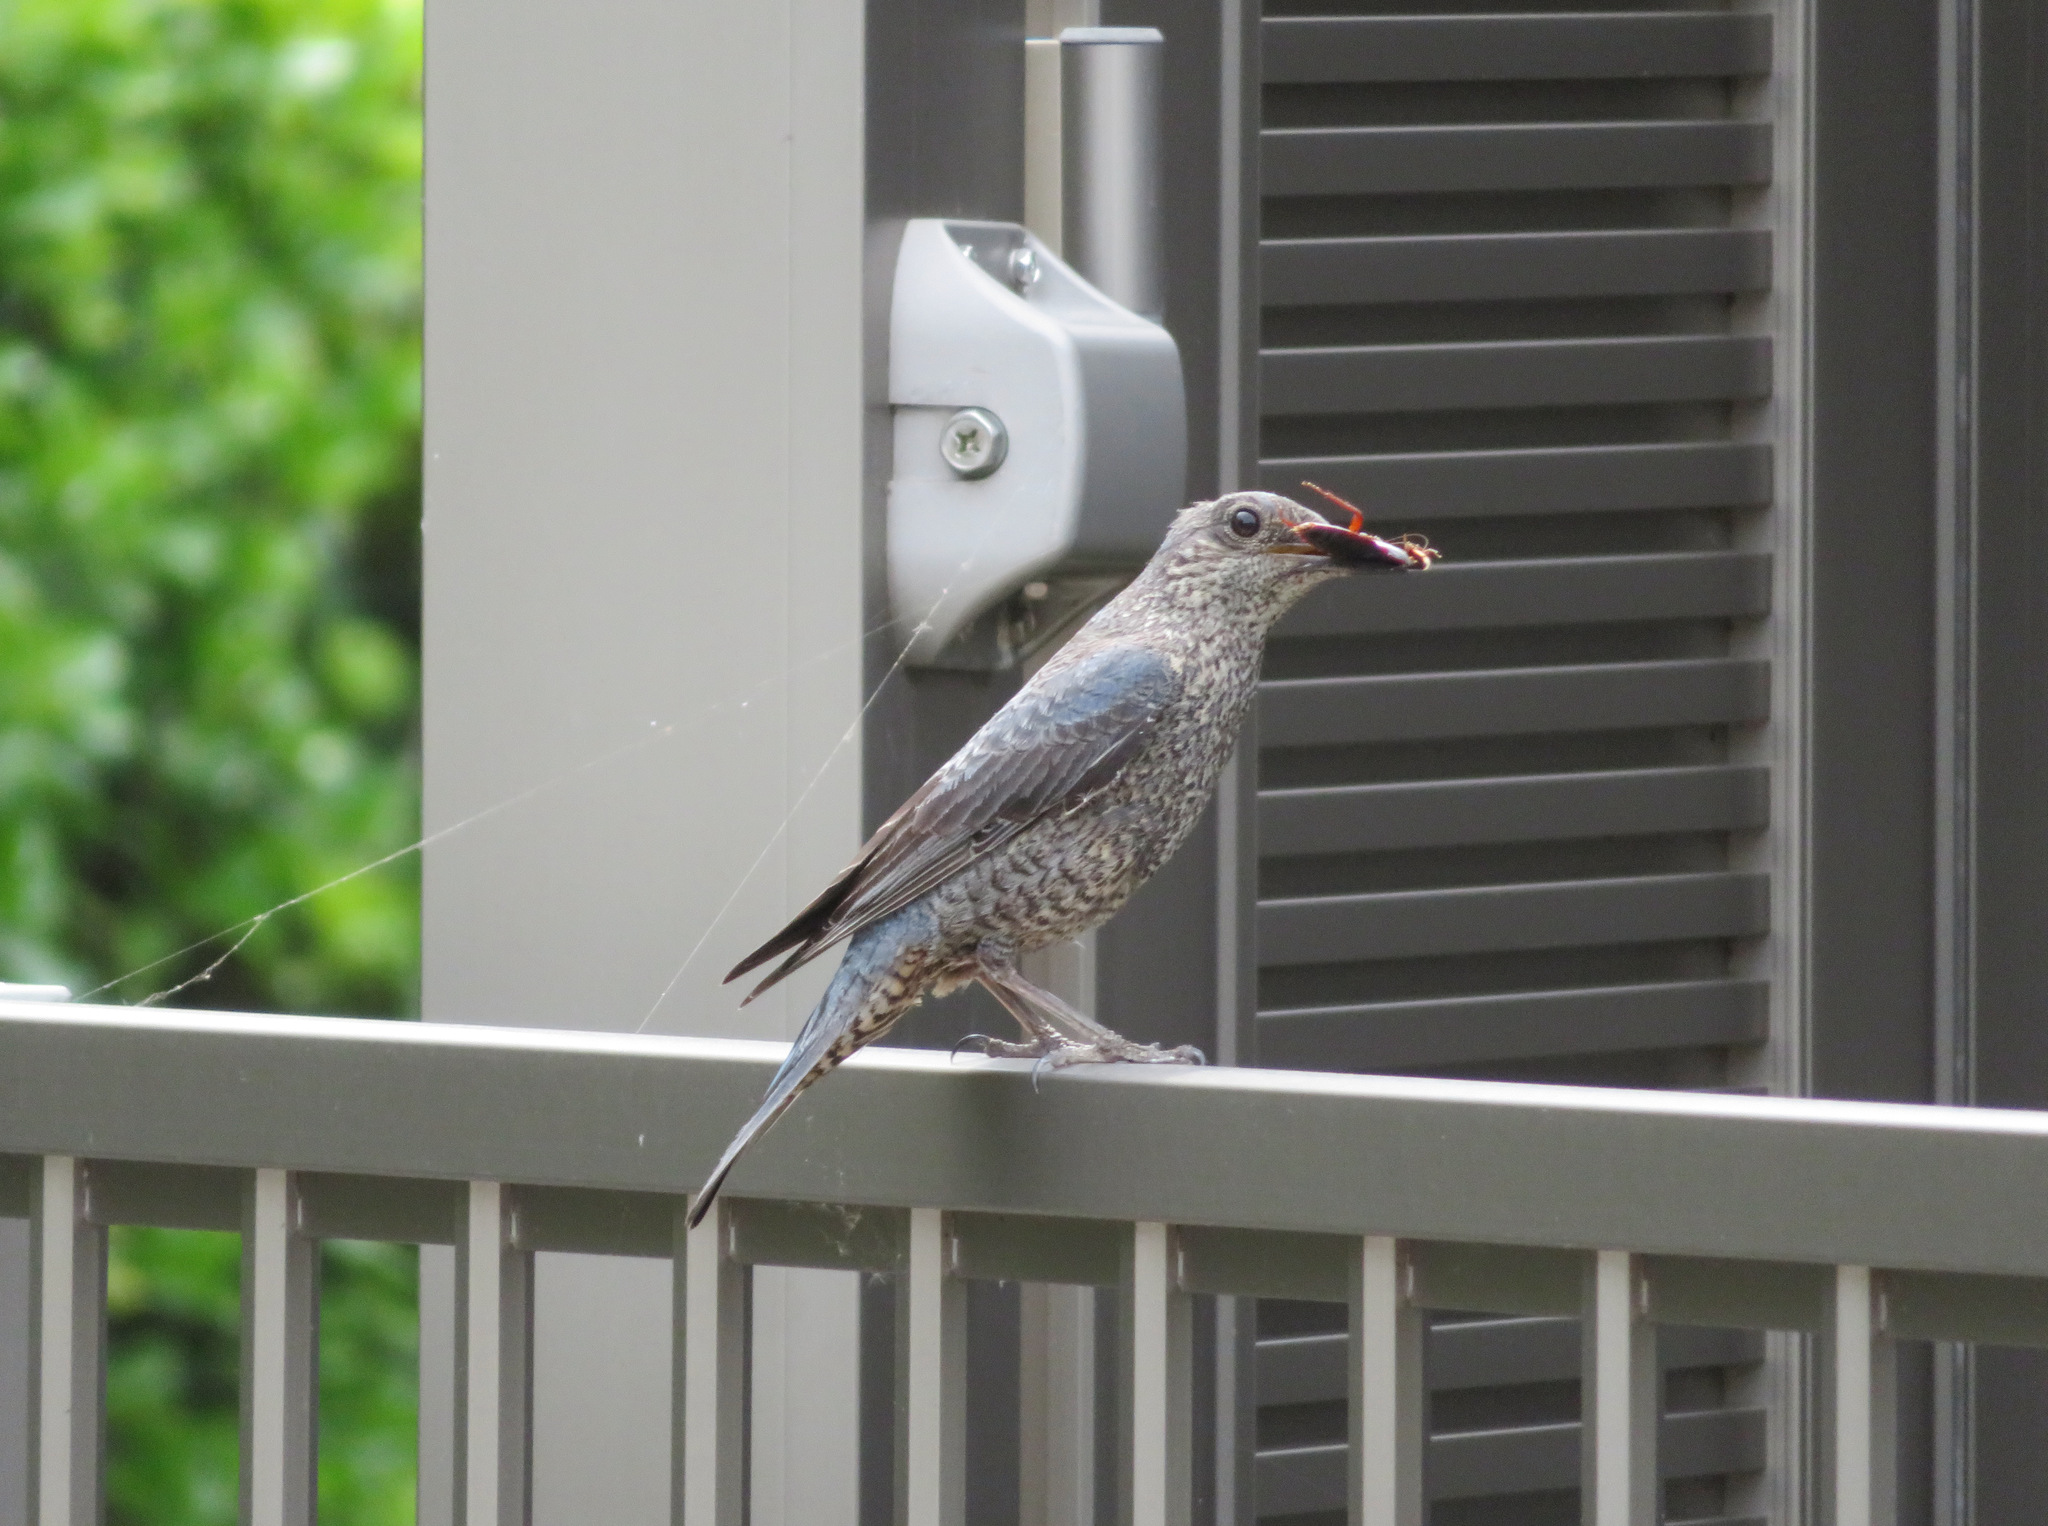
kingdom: Animalia
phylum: Chordata
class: Aves
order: Passeriformes
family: Muscicapidae
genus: Monticola
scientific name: Monticola solitarius
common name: Blue rock thrush
